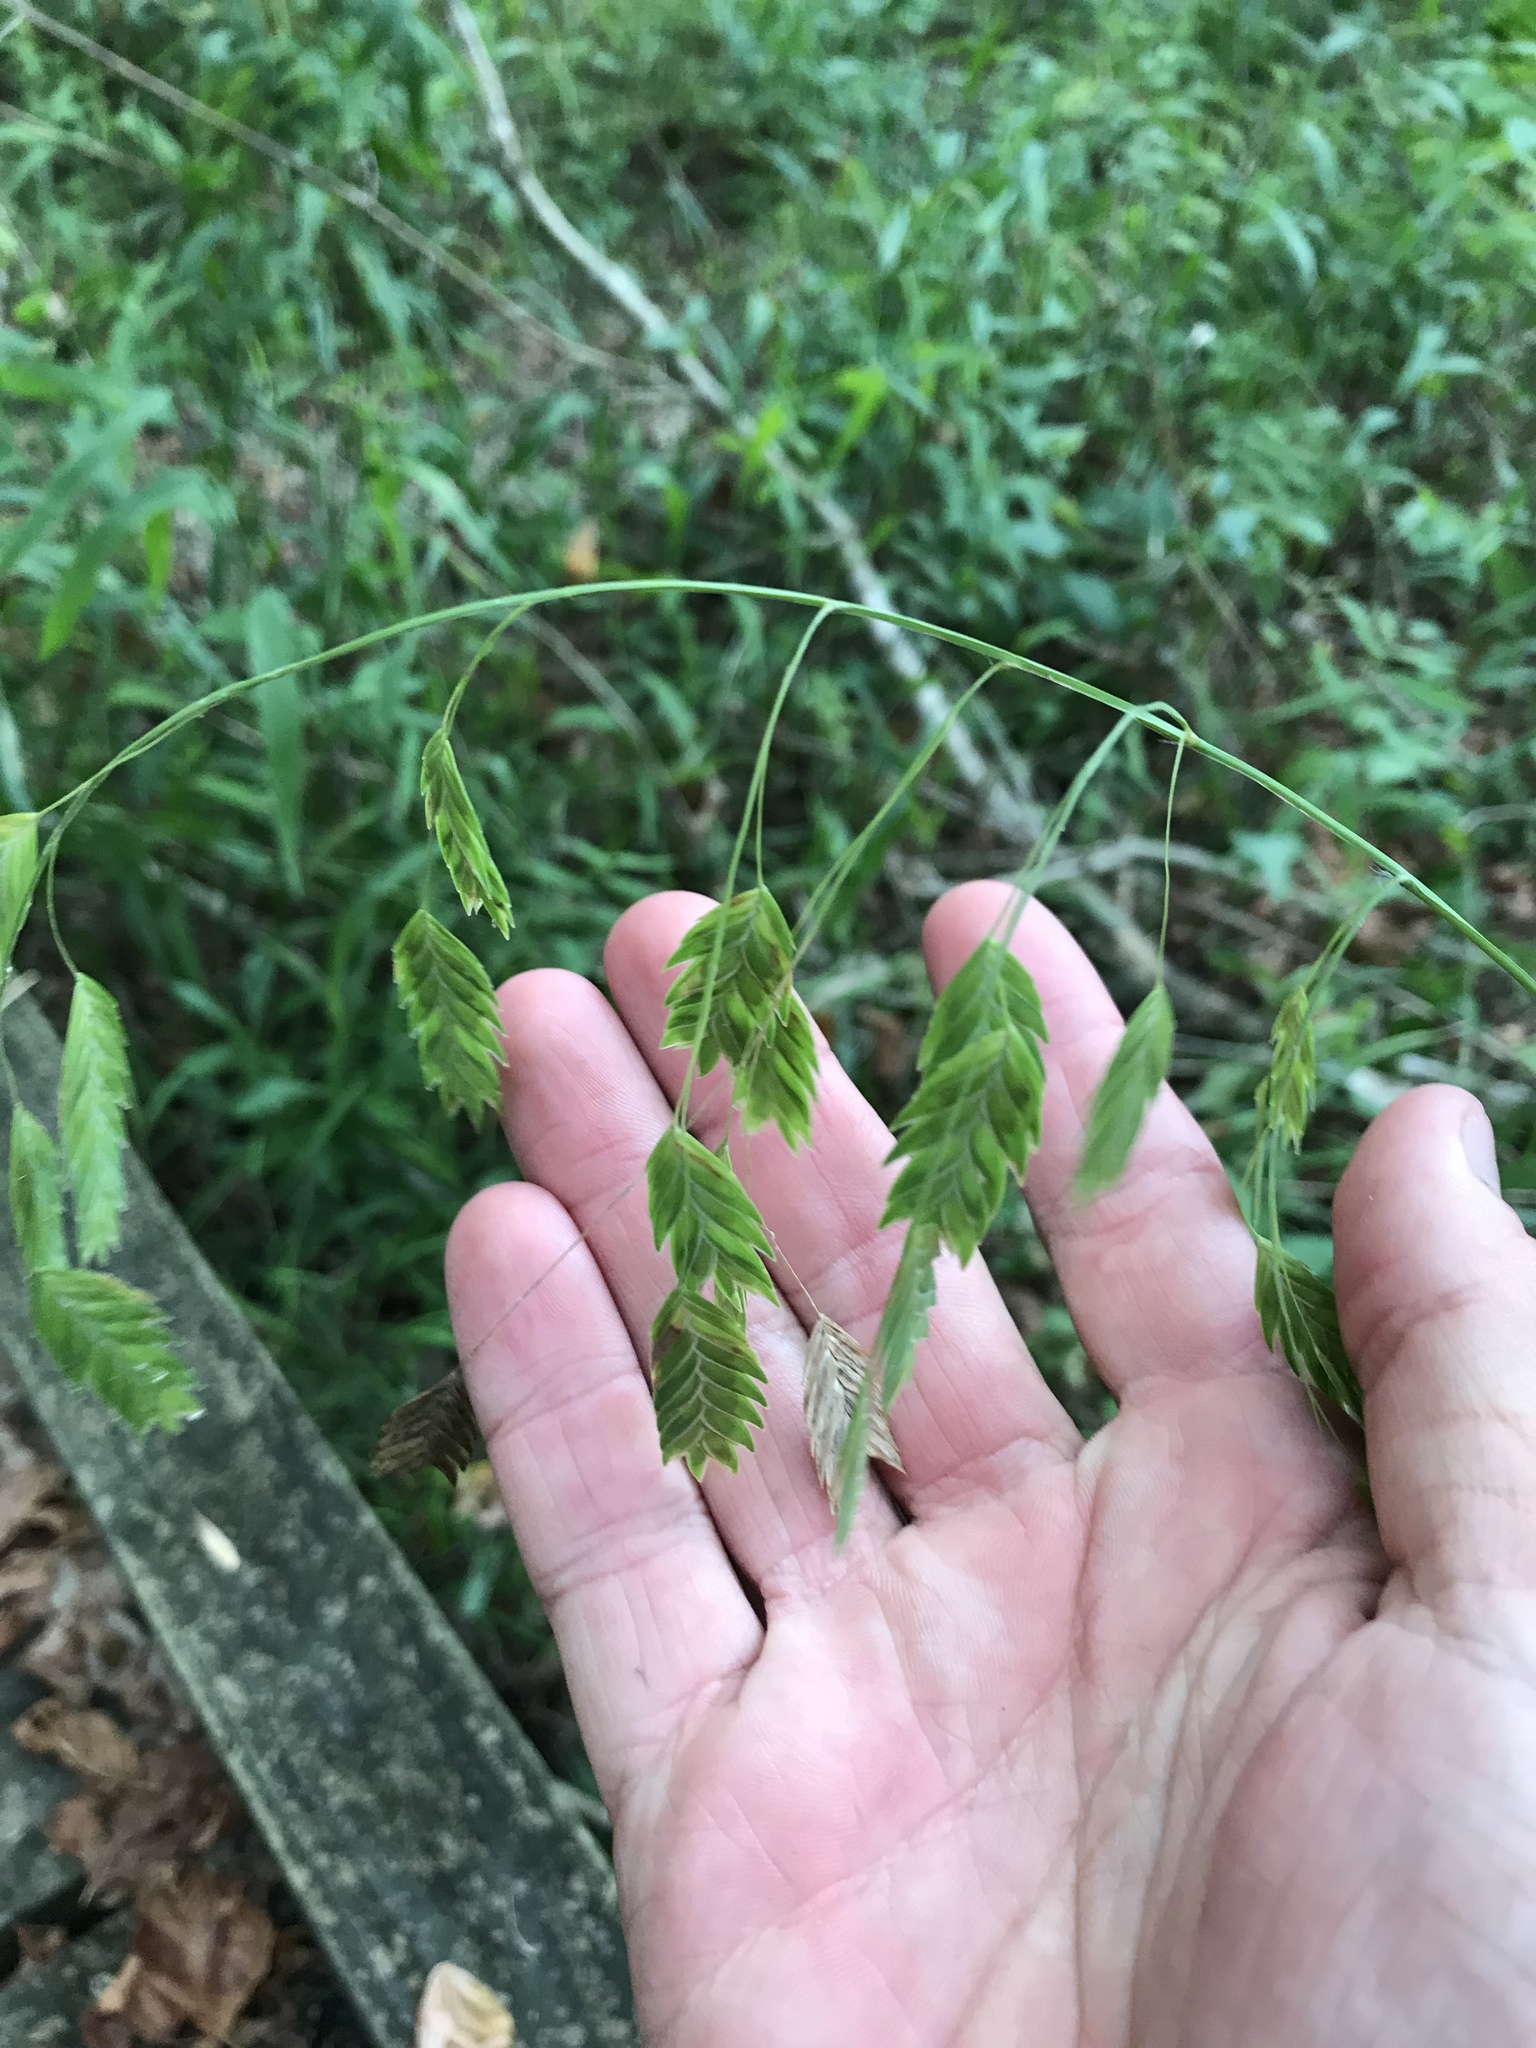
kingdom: Plantae
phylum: Tracheophyta
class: Liliopsida
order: Poales
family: Poaceae
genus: Chasmanthium
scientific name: Chasmanthium latifolium
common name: Broad-leaved chasmanthium
